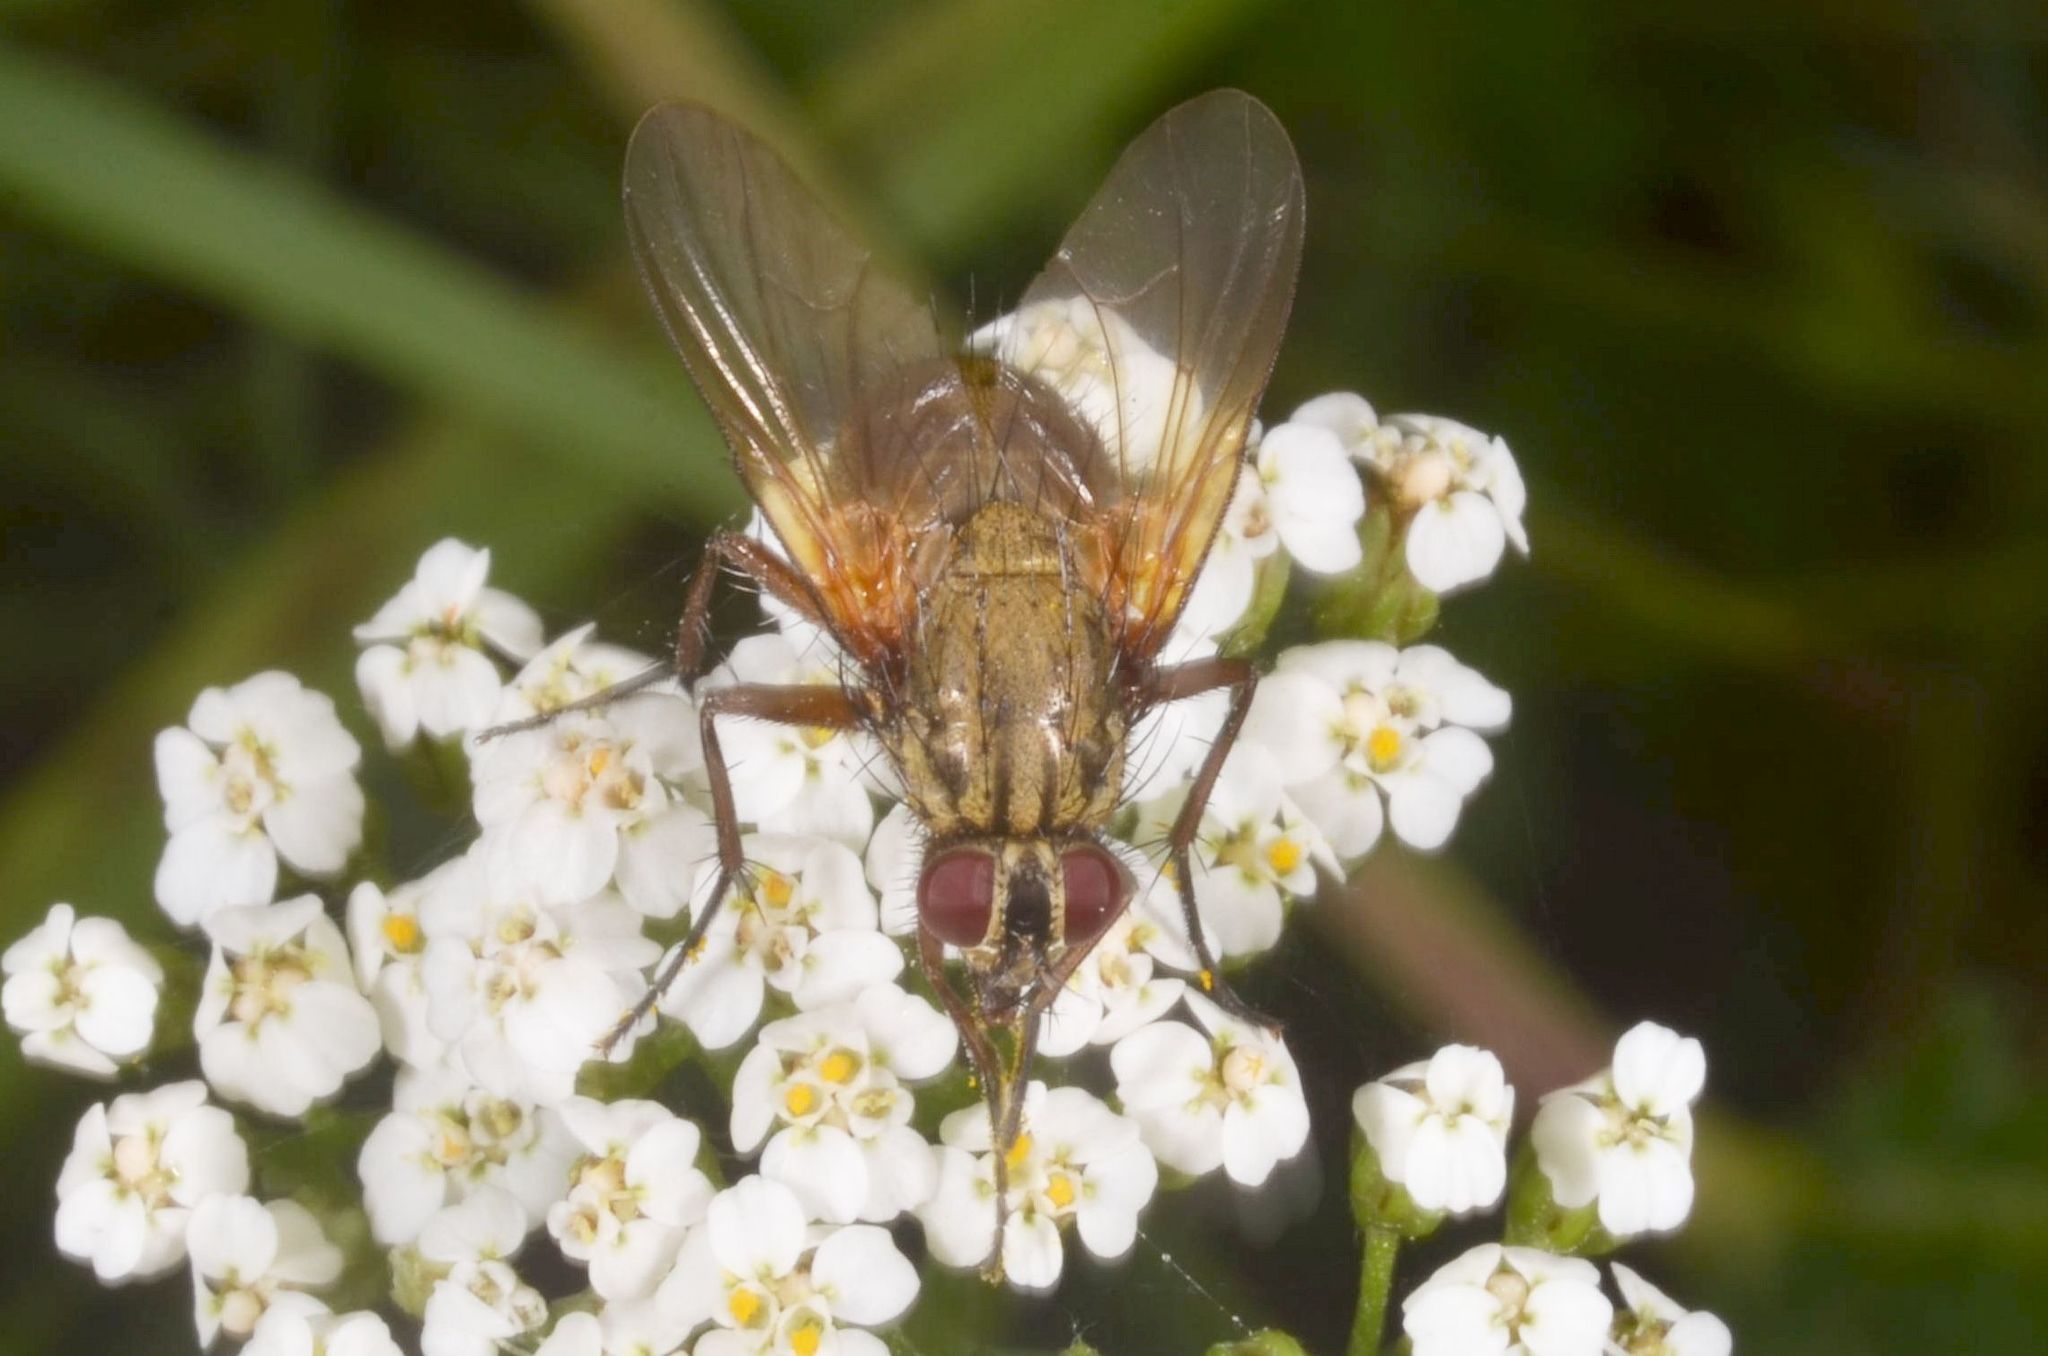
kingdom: Animalia
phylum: Arthropoda
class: Insecta
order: Diptera
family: Muscidae
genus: Phaonia
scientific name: Phaonia angelicae
